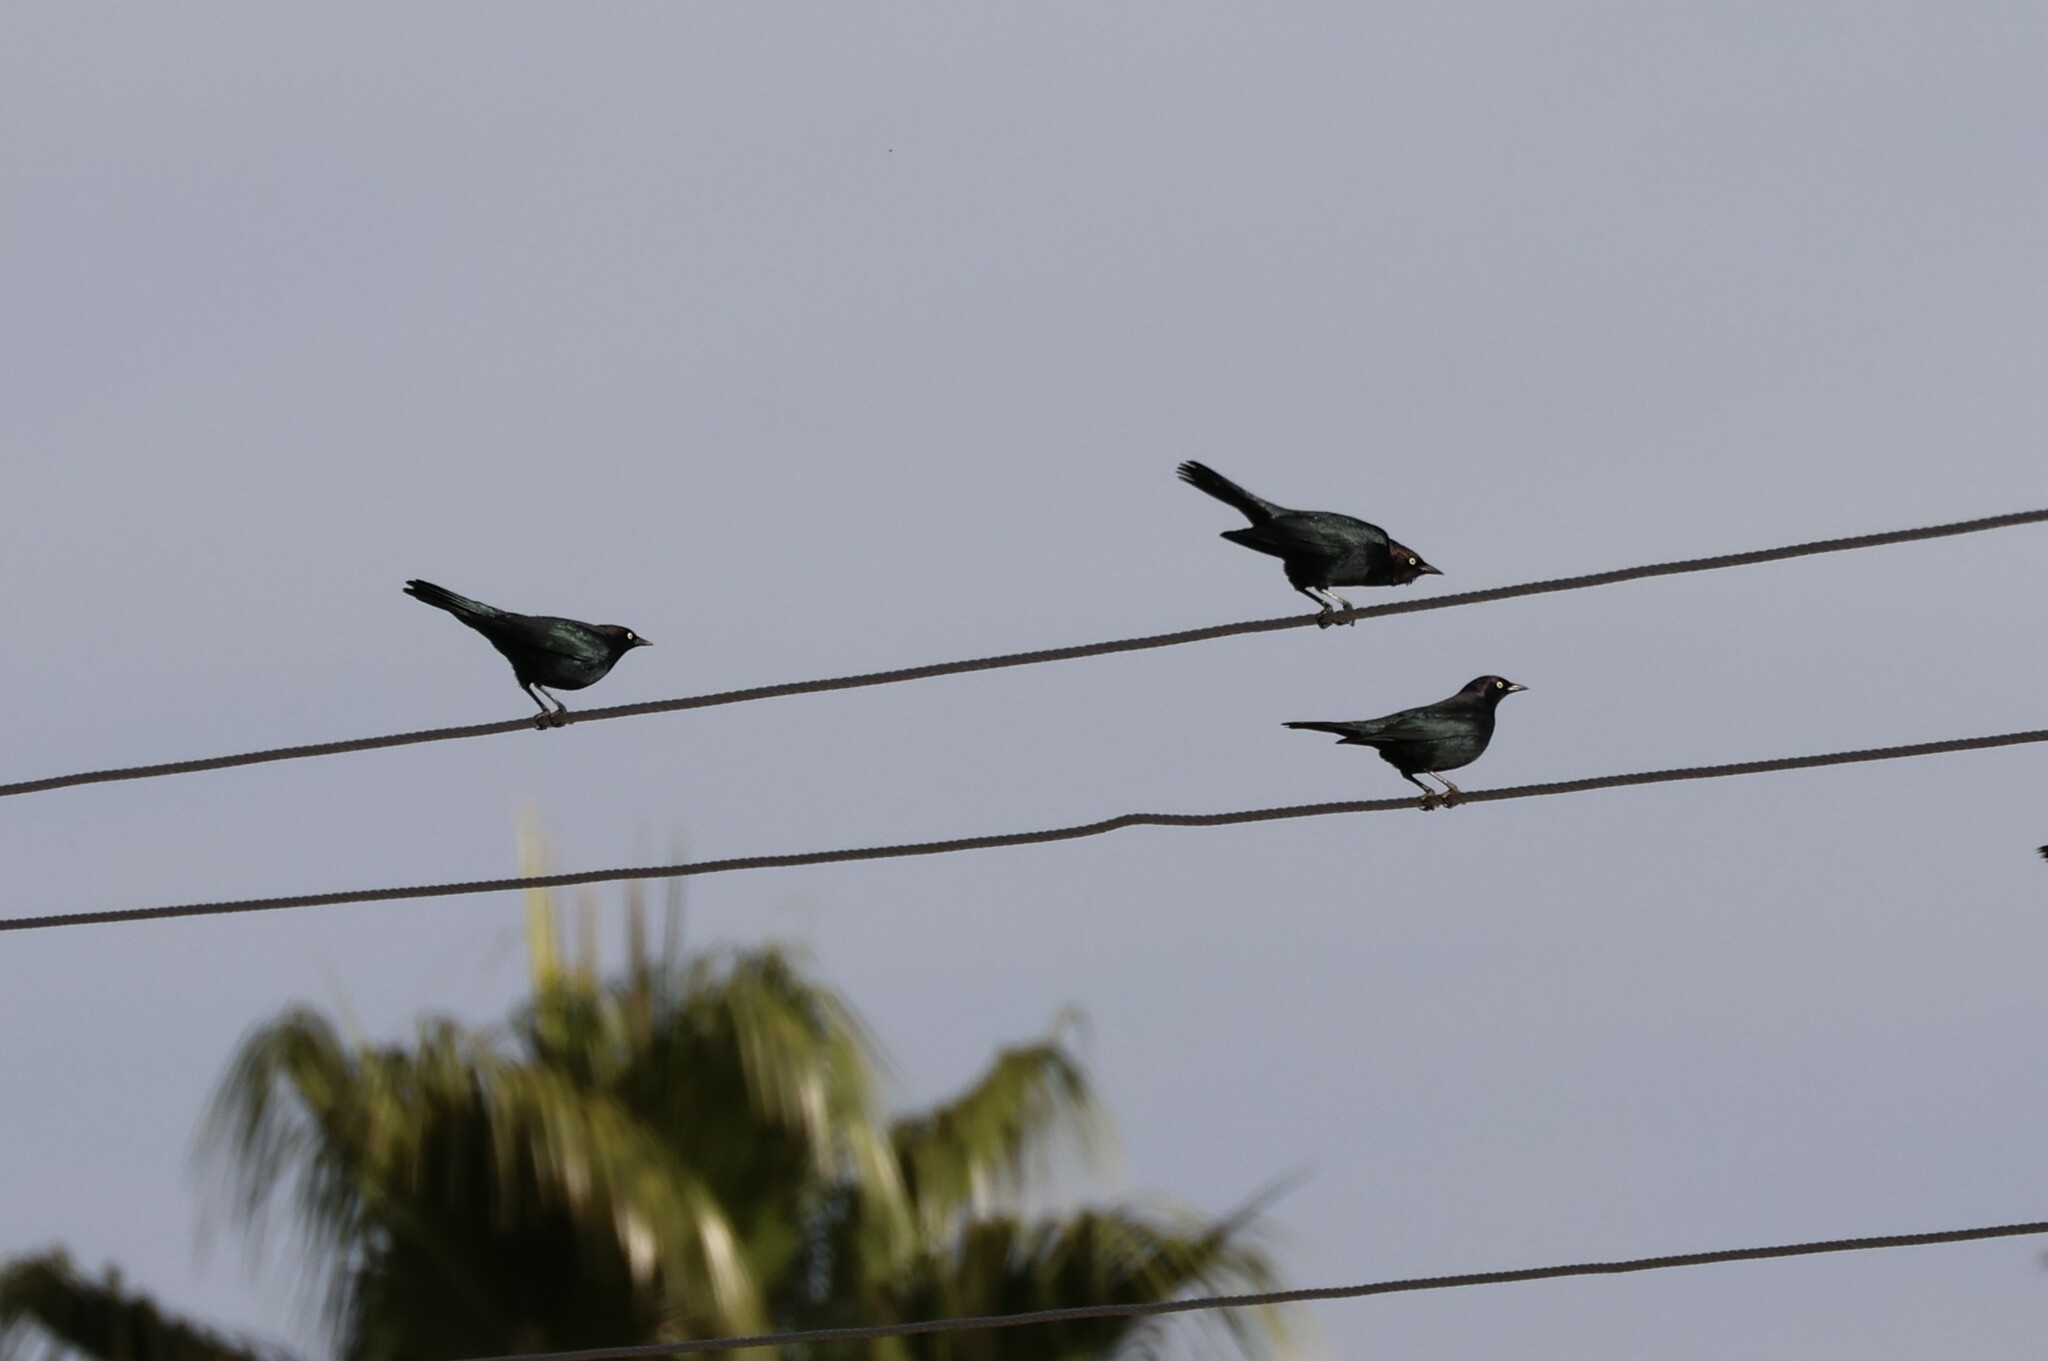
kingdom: Animalia
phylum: Chordata
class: Aves
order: Passeriformes
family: Icteridae
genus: Agelaius
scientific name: Agelaius tricolor
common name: Tricolored blackbird
